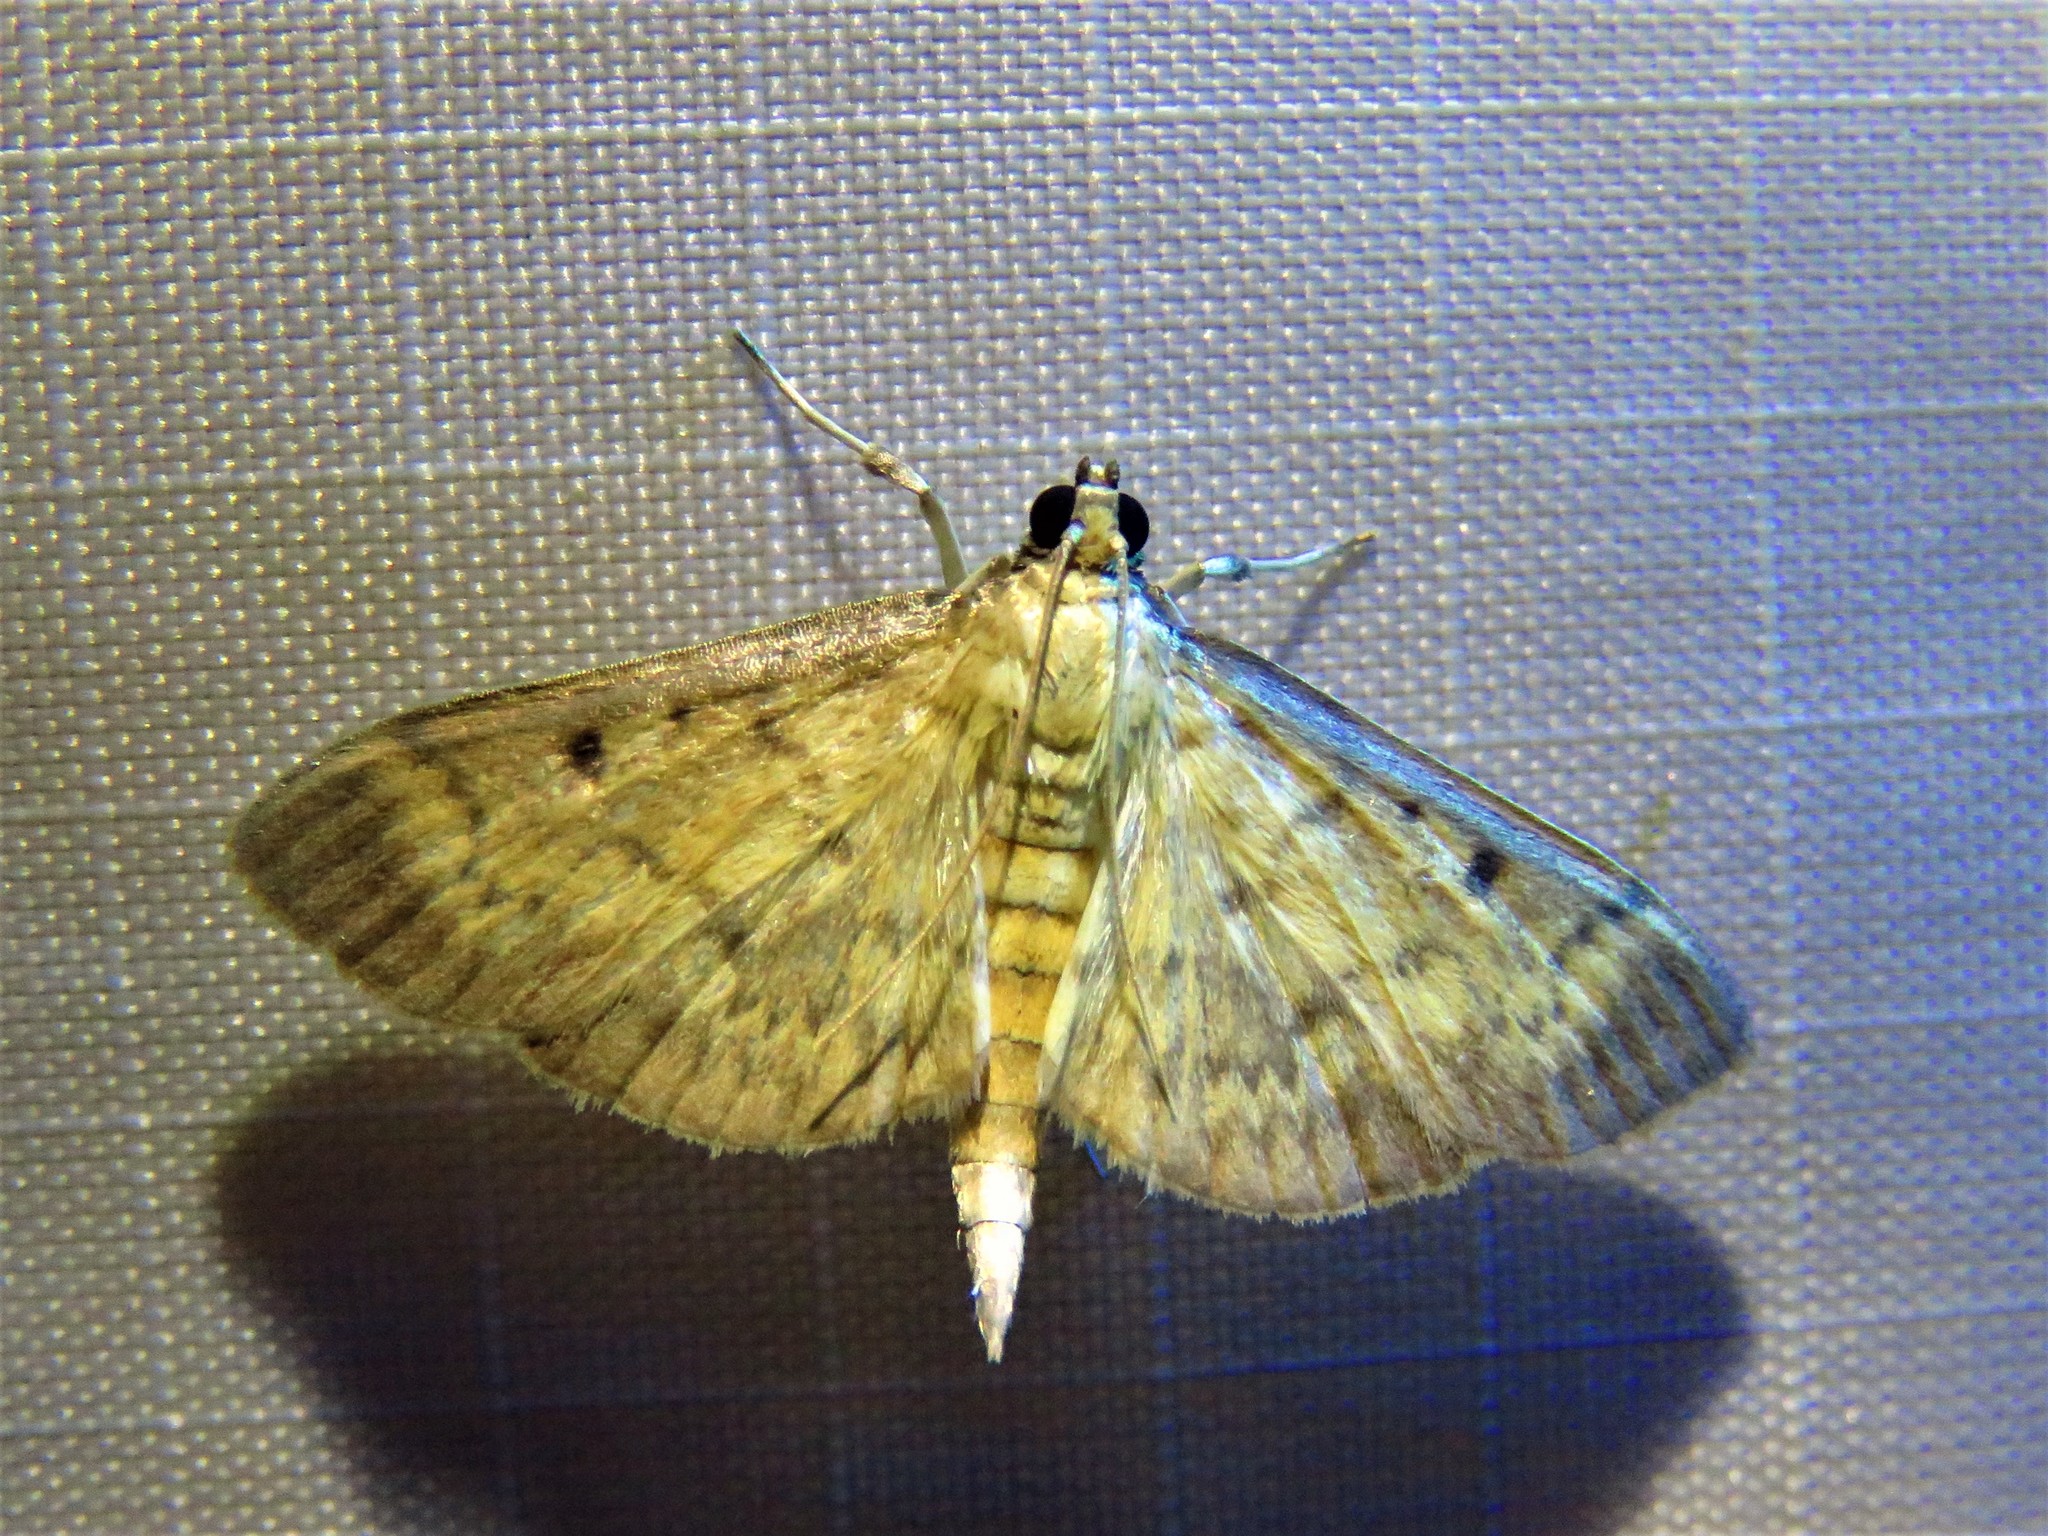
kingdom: Animalia
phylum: Arthropoda
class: Insecta
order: Lepidoptera
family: Crambidae
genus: Herpetogramma
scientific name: Herpetogramma fluctuosalis
